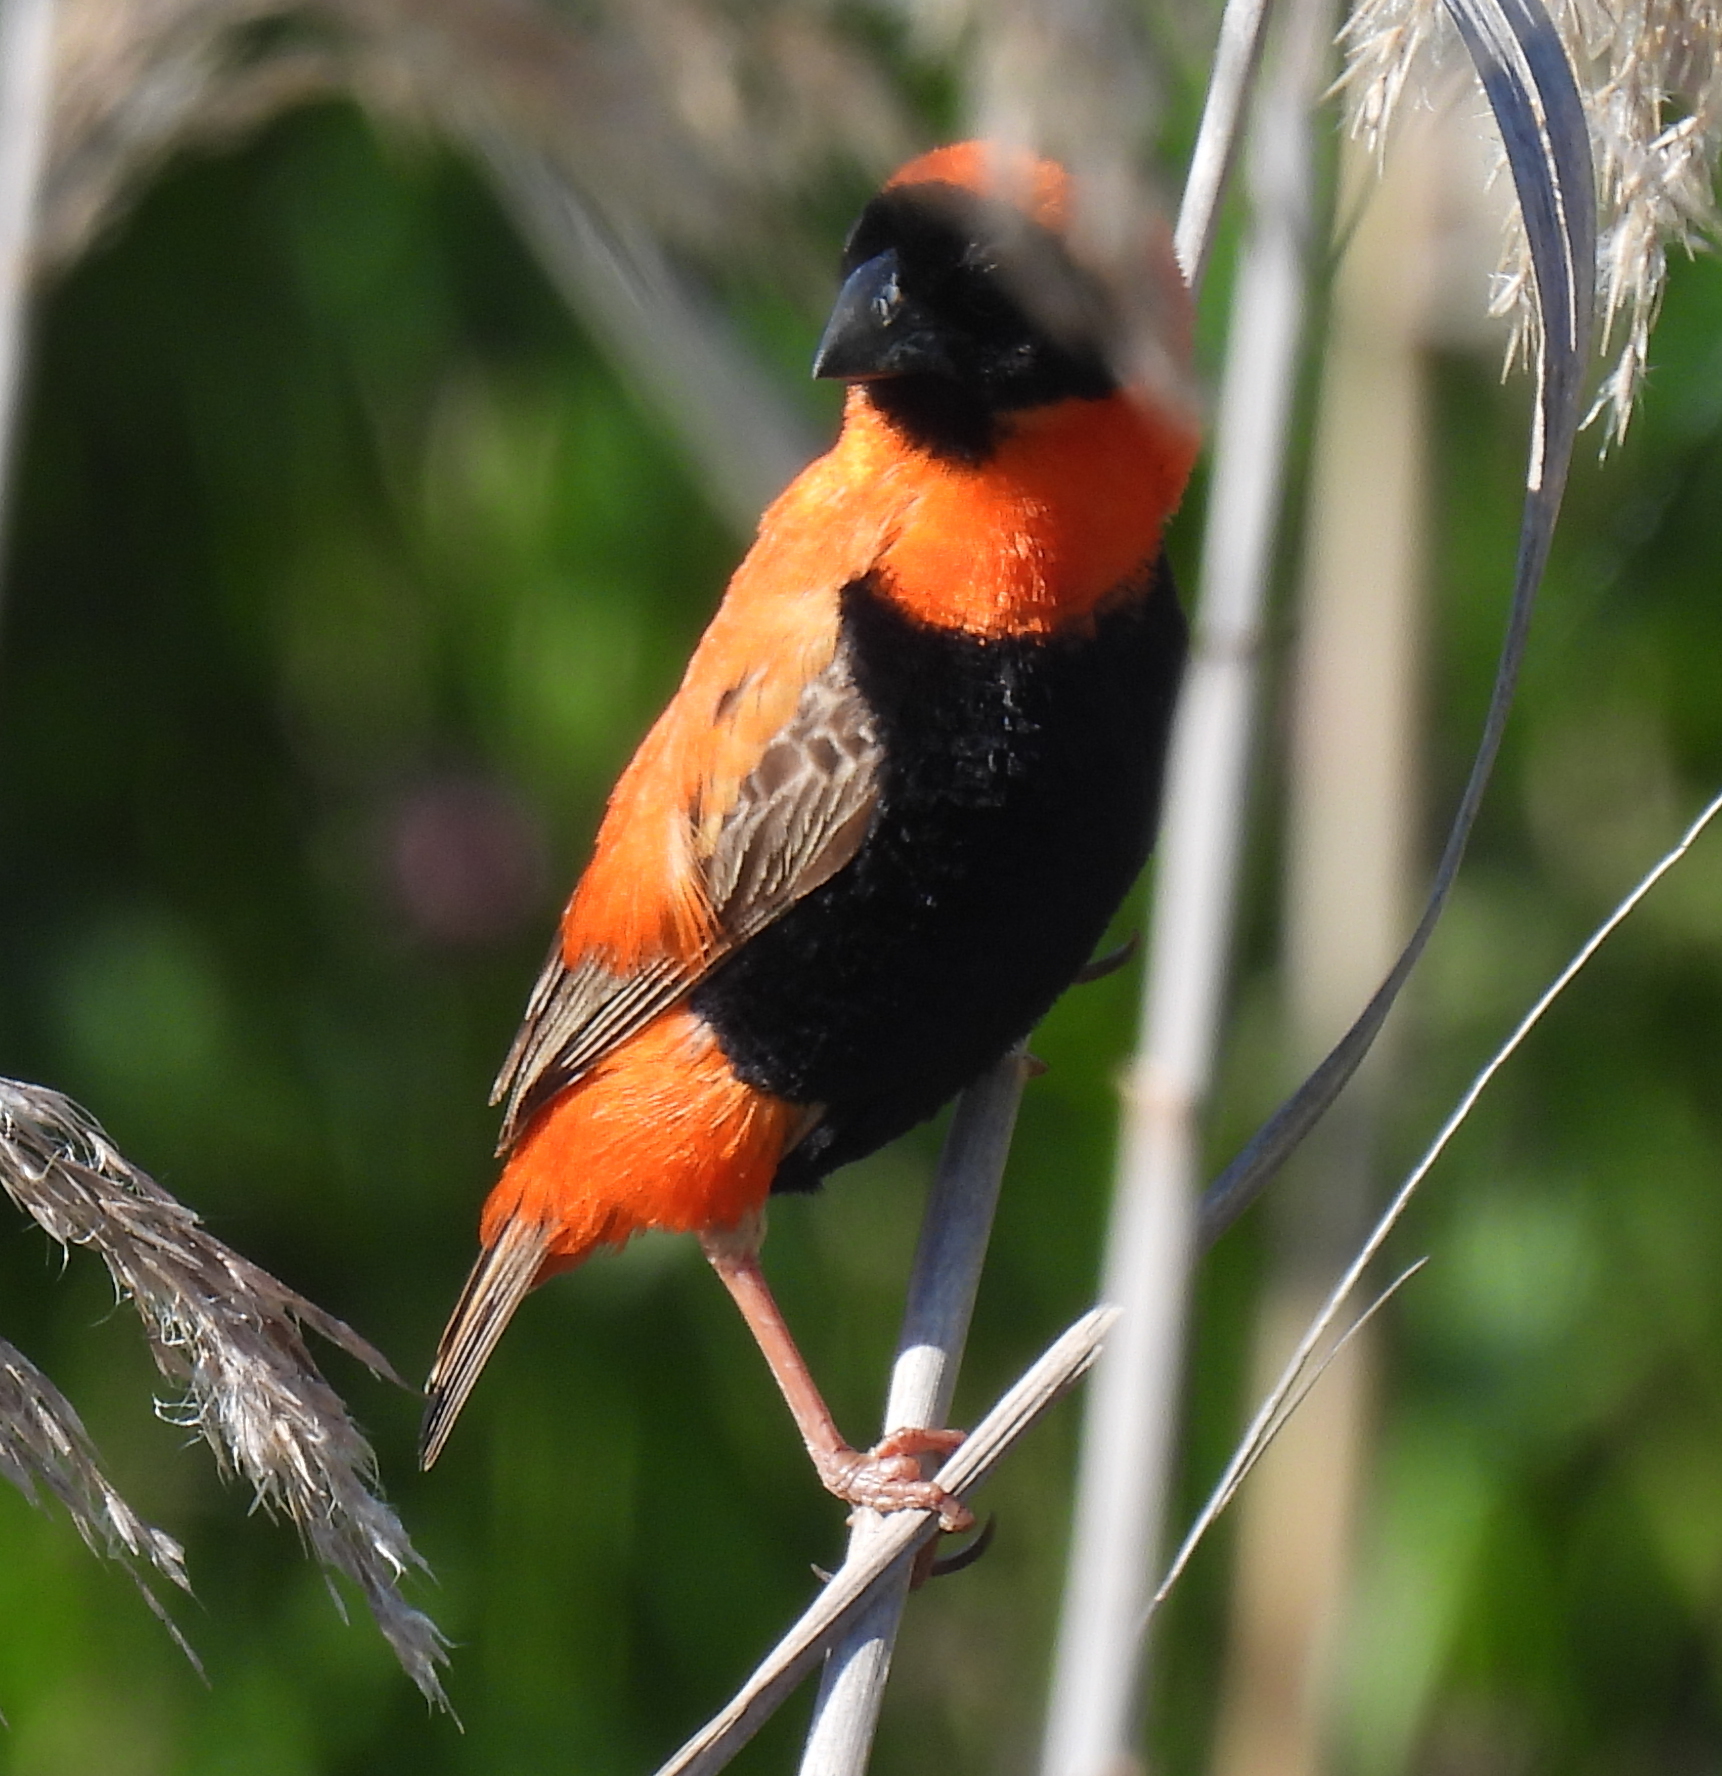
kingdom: Animalia
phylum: Chordata
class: Aves
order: Passeriformes
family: Ploceidae
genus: Euplectes
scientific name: Euplectes orix
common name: Southern red bishop
